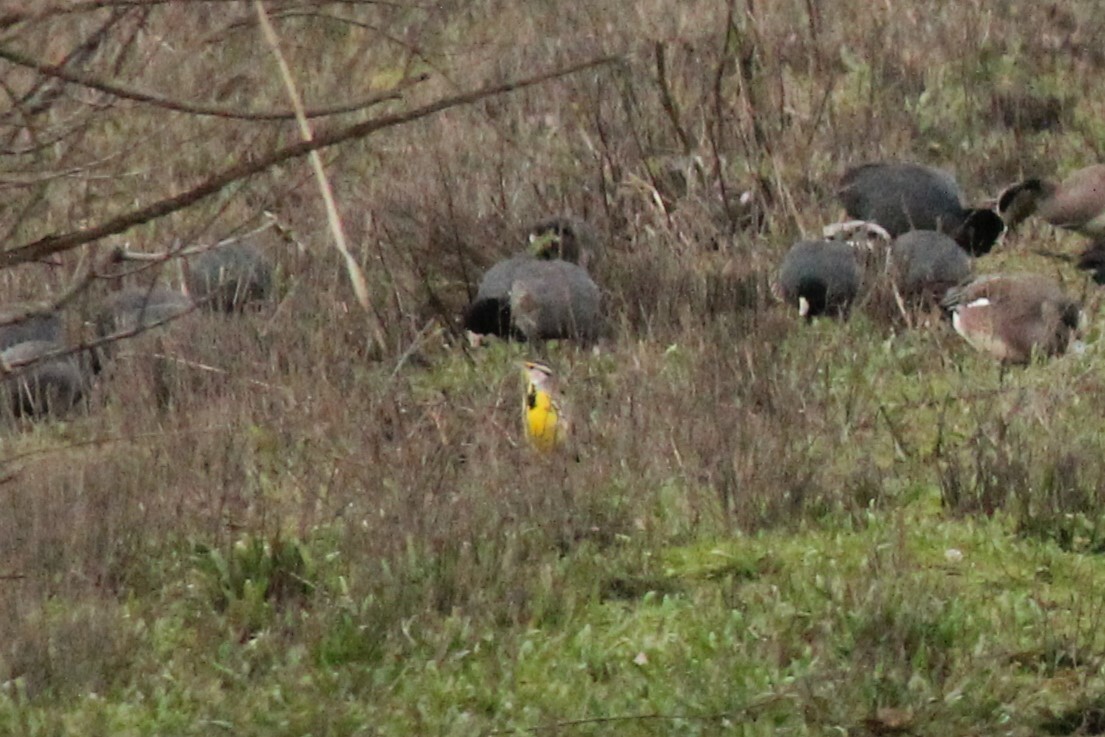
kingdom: Animalia
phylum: Chordata
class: Aves
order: Passeriformes
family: Icteridae
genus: Sturnella
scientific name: Sturnella neglecta
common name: Western meadowlark
